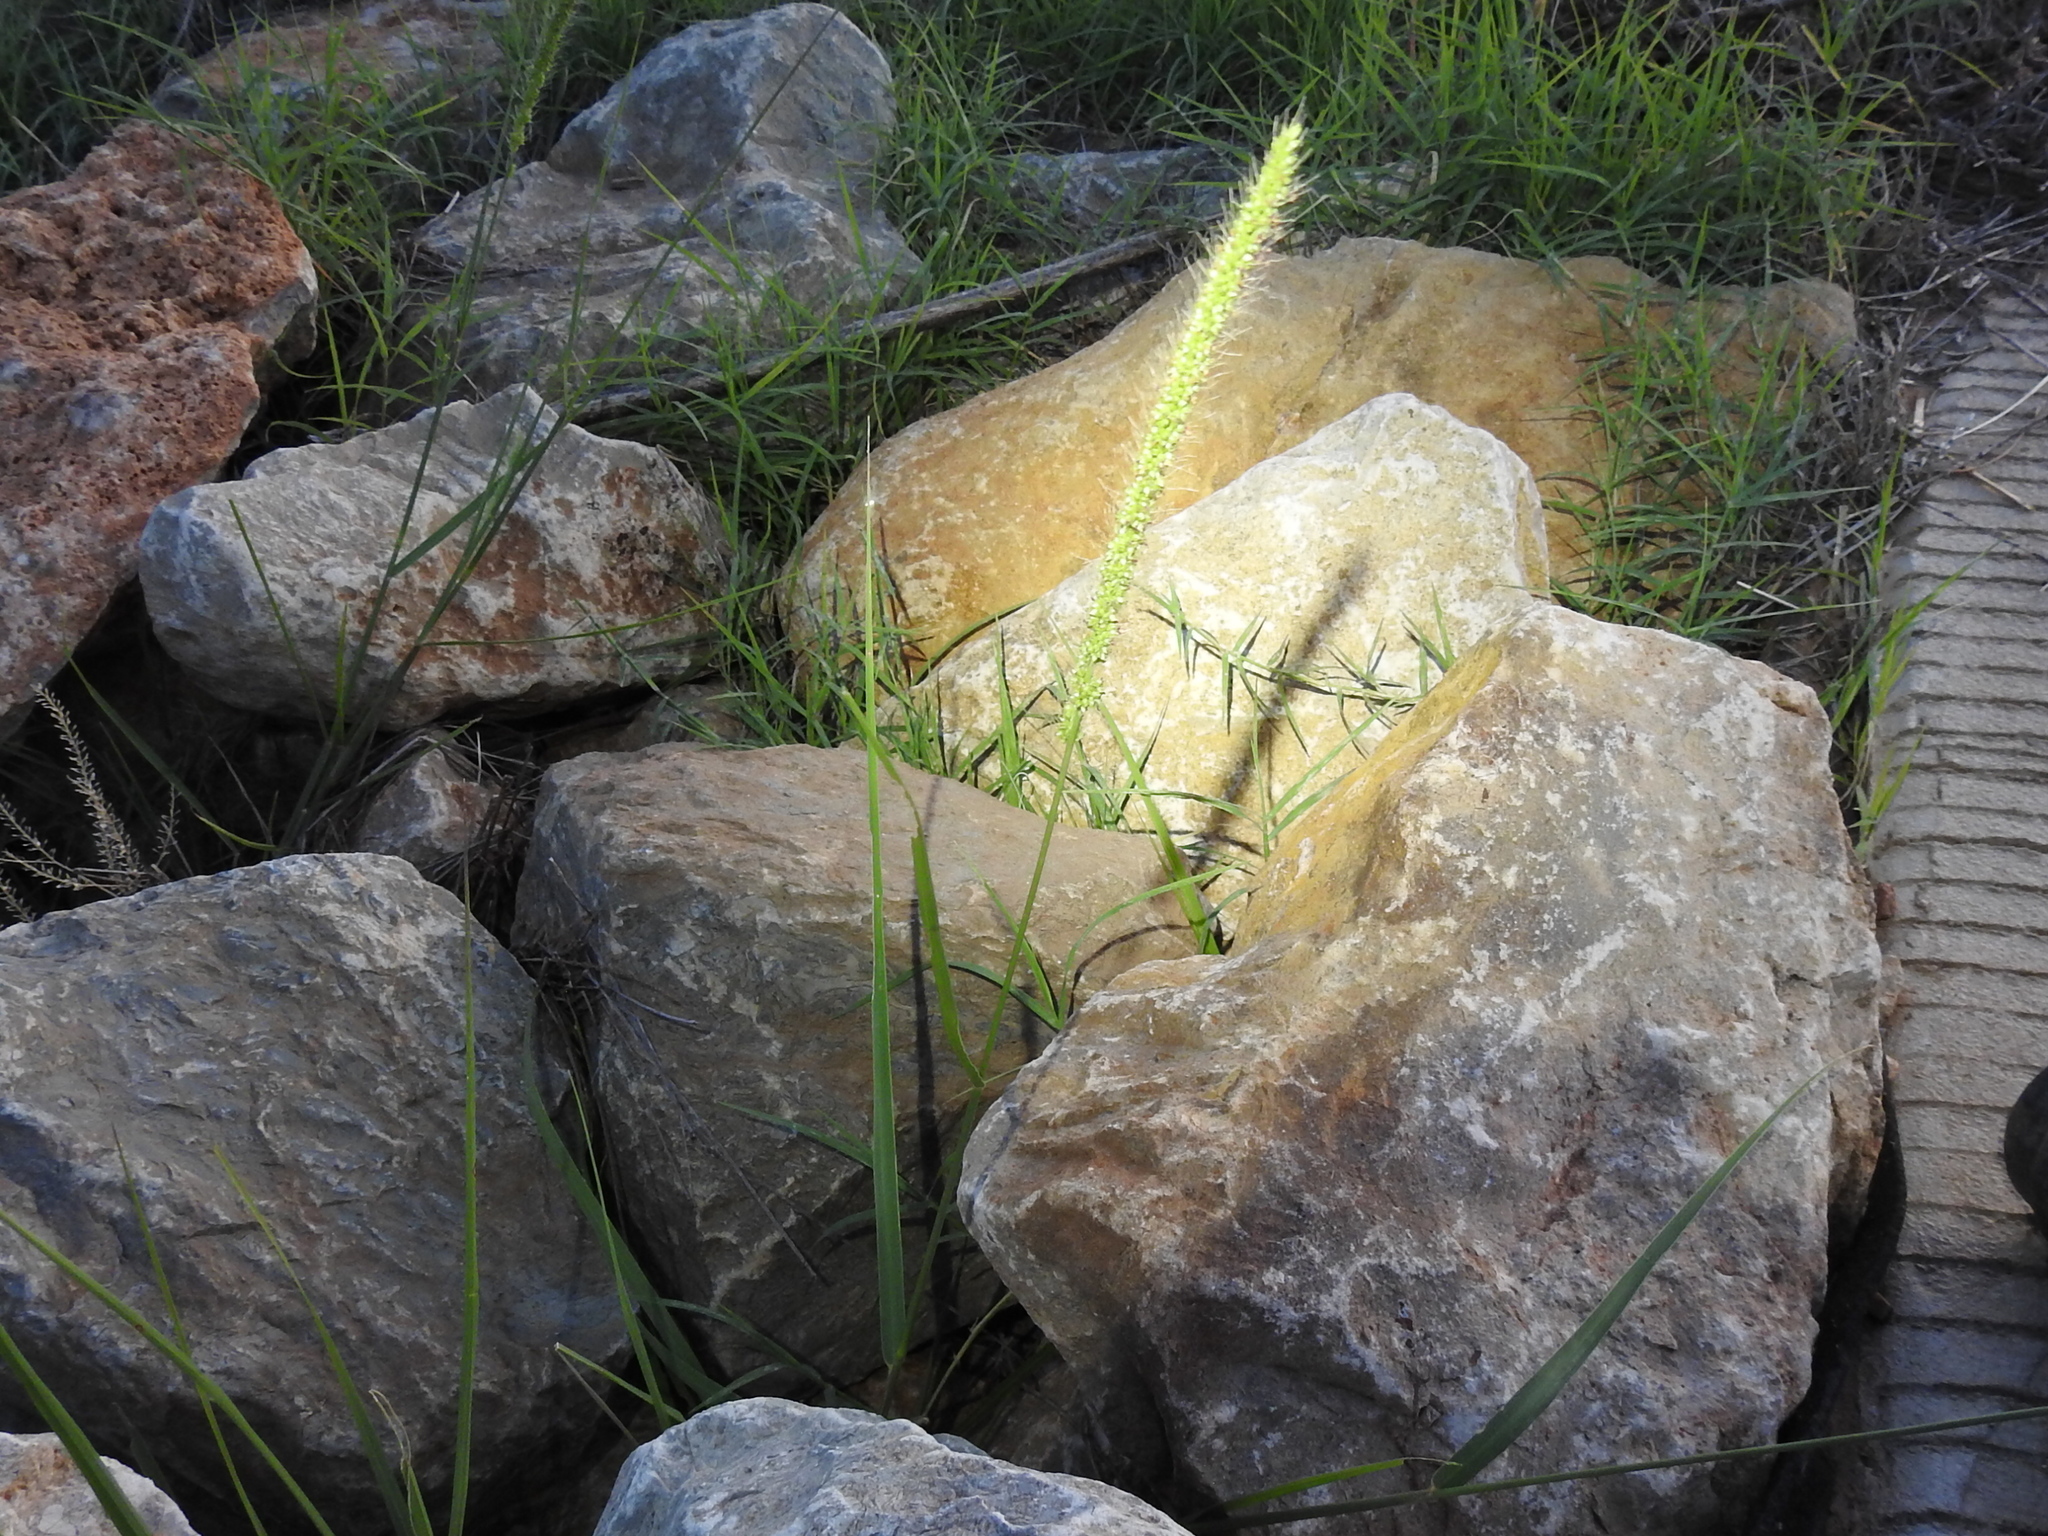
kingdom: Plantae
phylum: Tracheophyta
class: Liliopsida
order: Poales
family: Poaceae
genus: Setaria
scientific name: Setaria macrostachya
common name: Plains bristle grass
